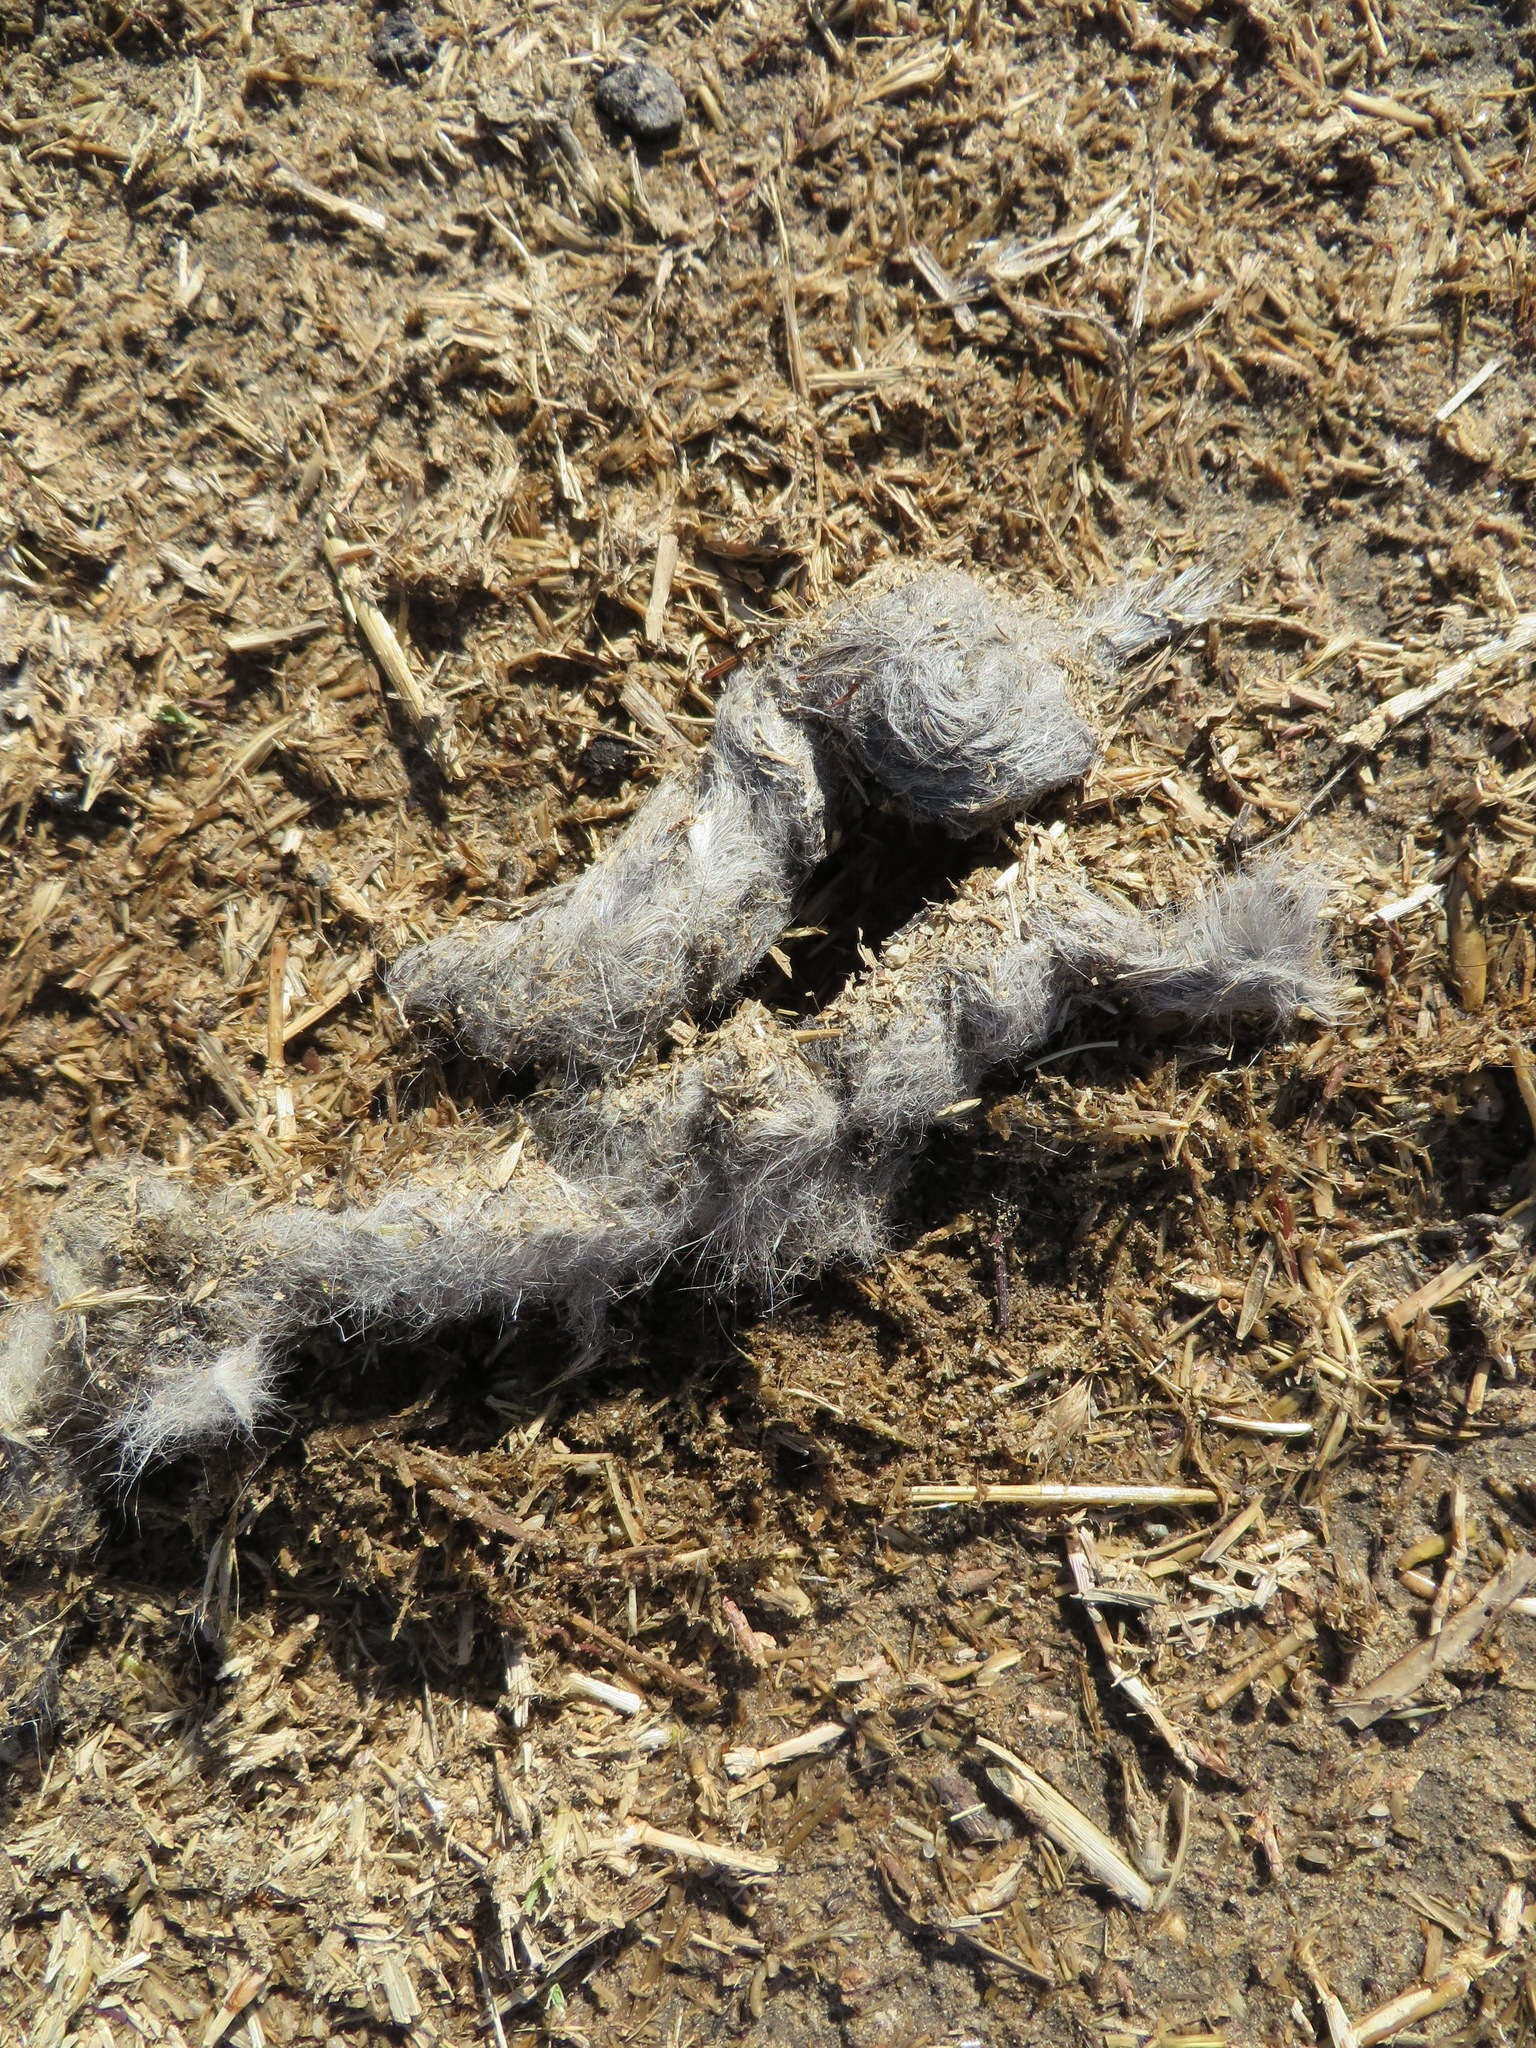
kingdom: Animalia
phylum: Chordata
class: Mammalia
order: Carnivora
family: Canidae
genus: Canis
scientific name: Canis latrans
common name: Coyote
